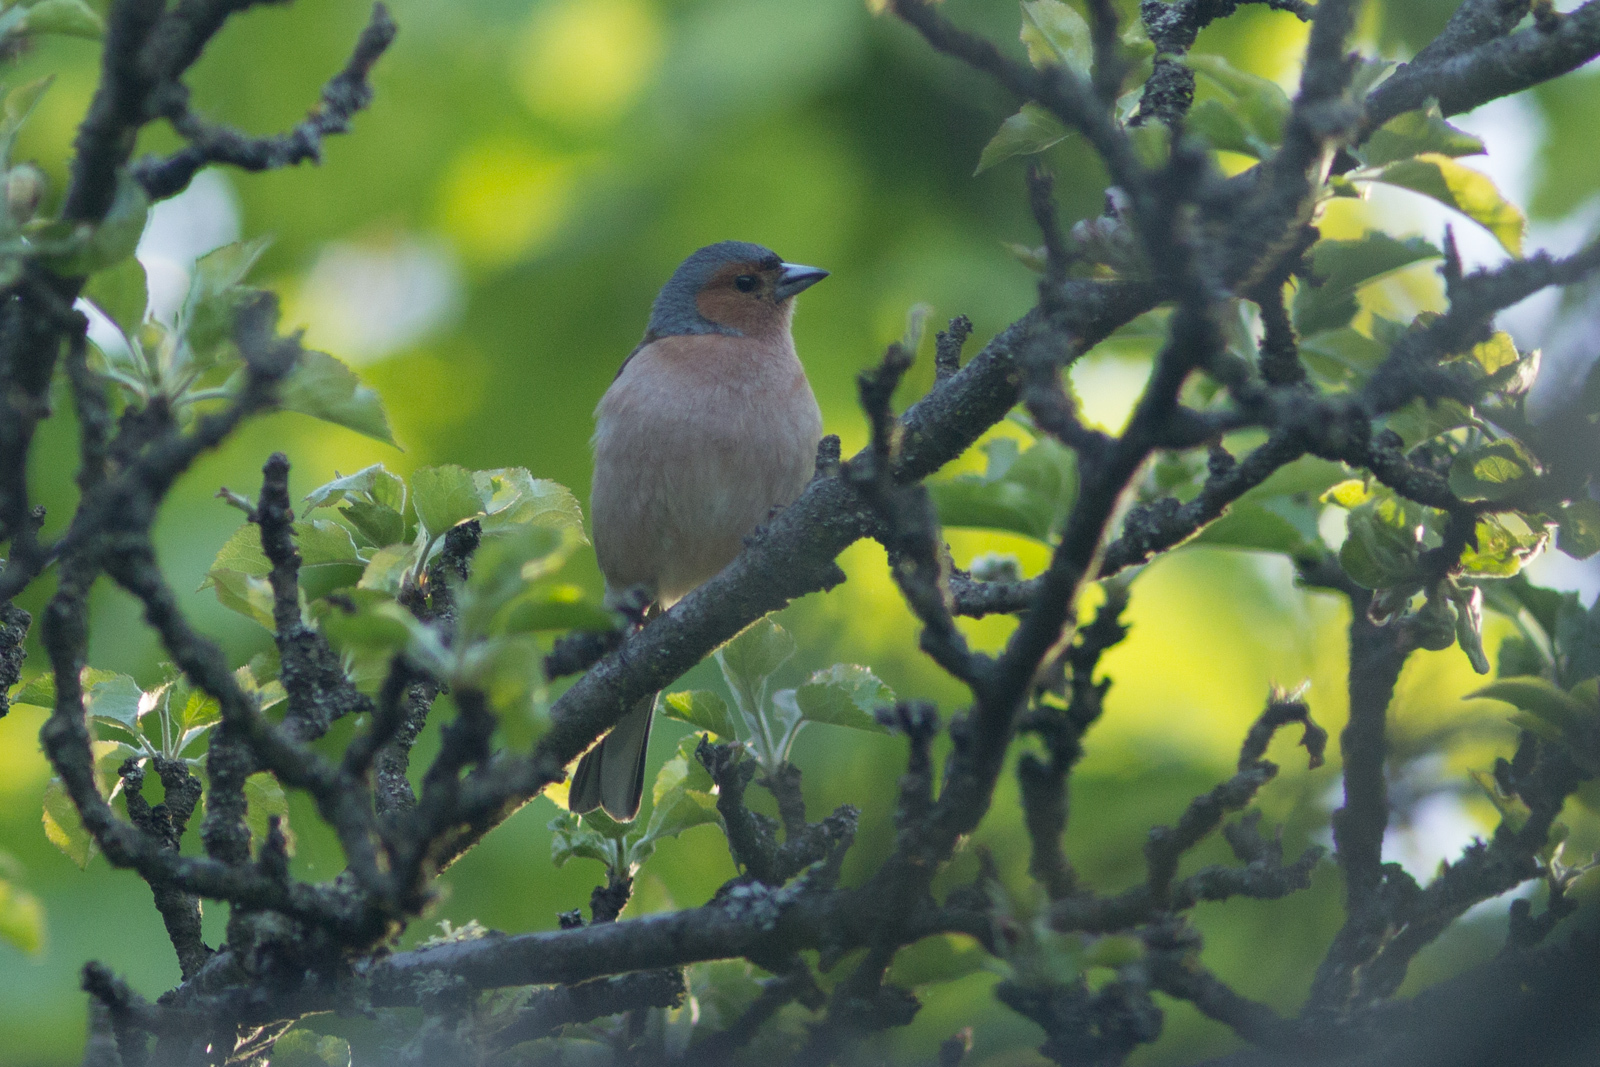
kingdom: Animalia
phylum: Chordata
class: Aves
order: Passeriformes
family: Fringillidae
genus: Fringilla
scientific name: Fringilla coelebs
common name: Common chaffinch
